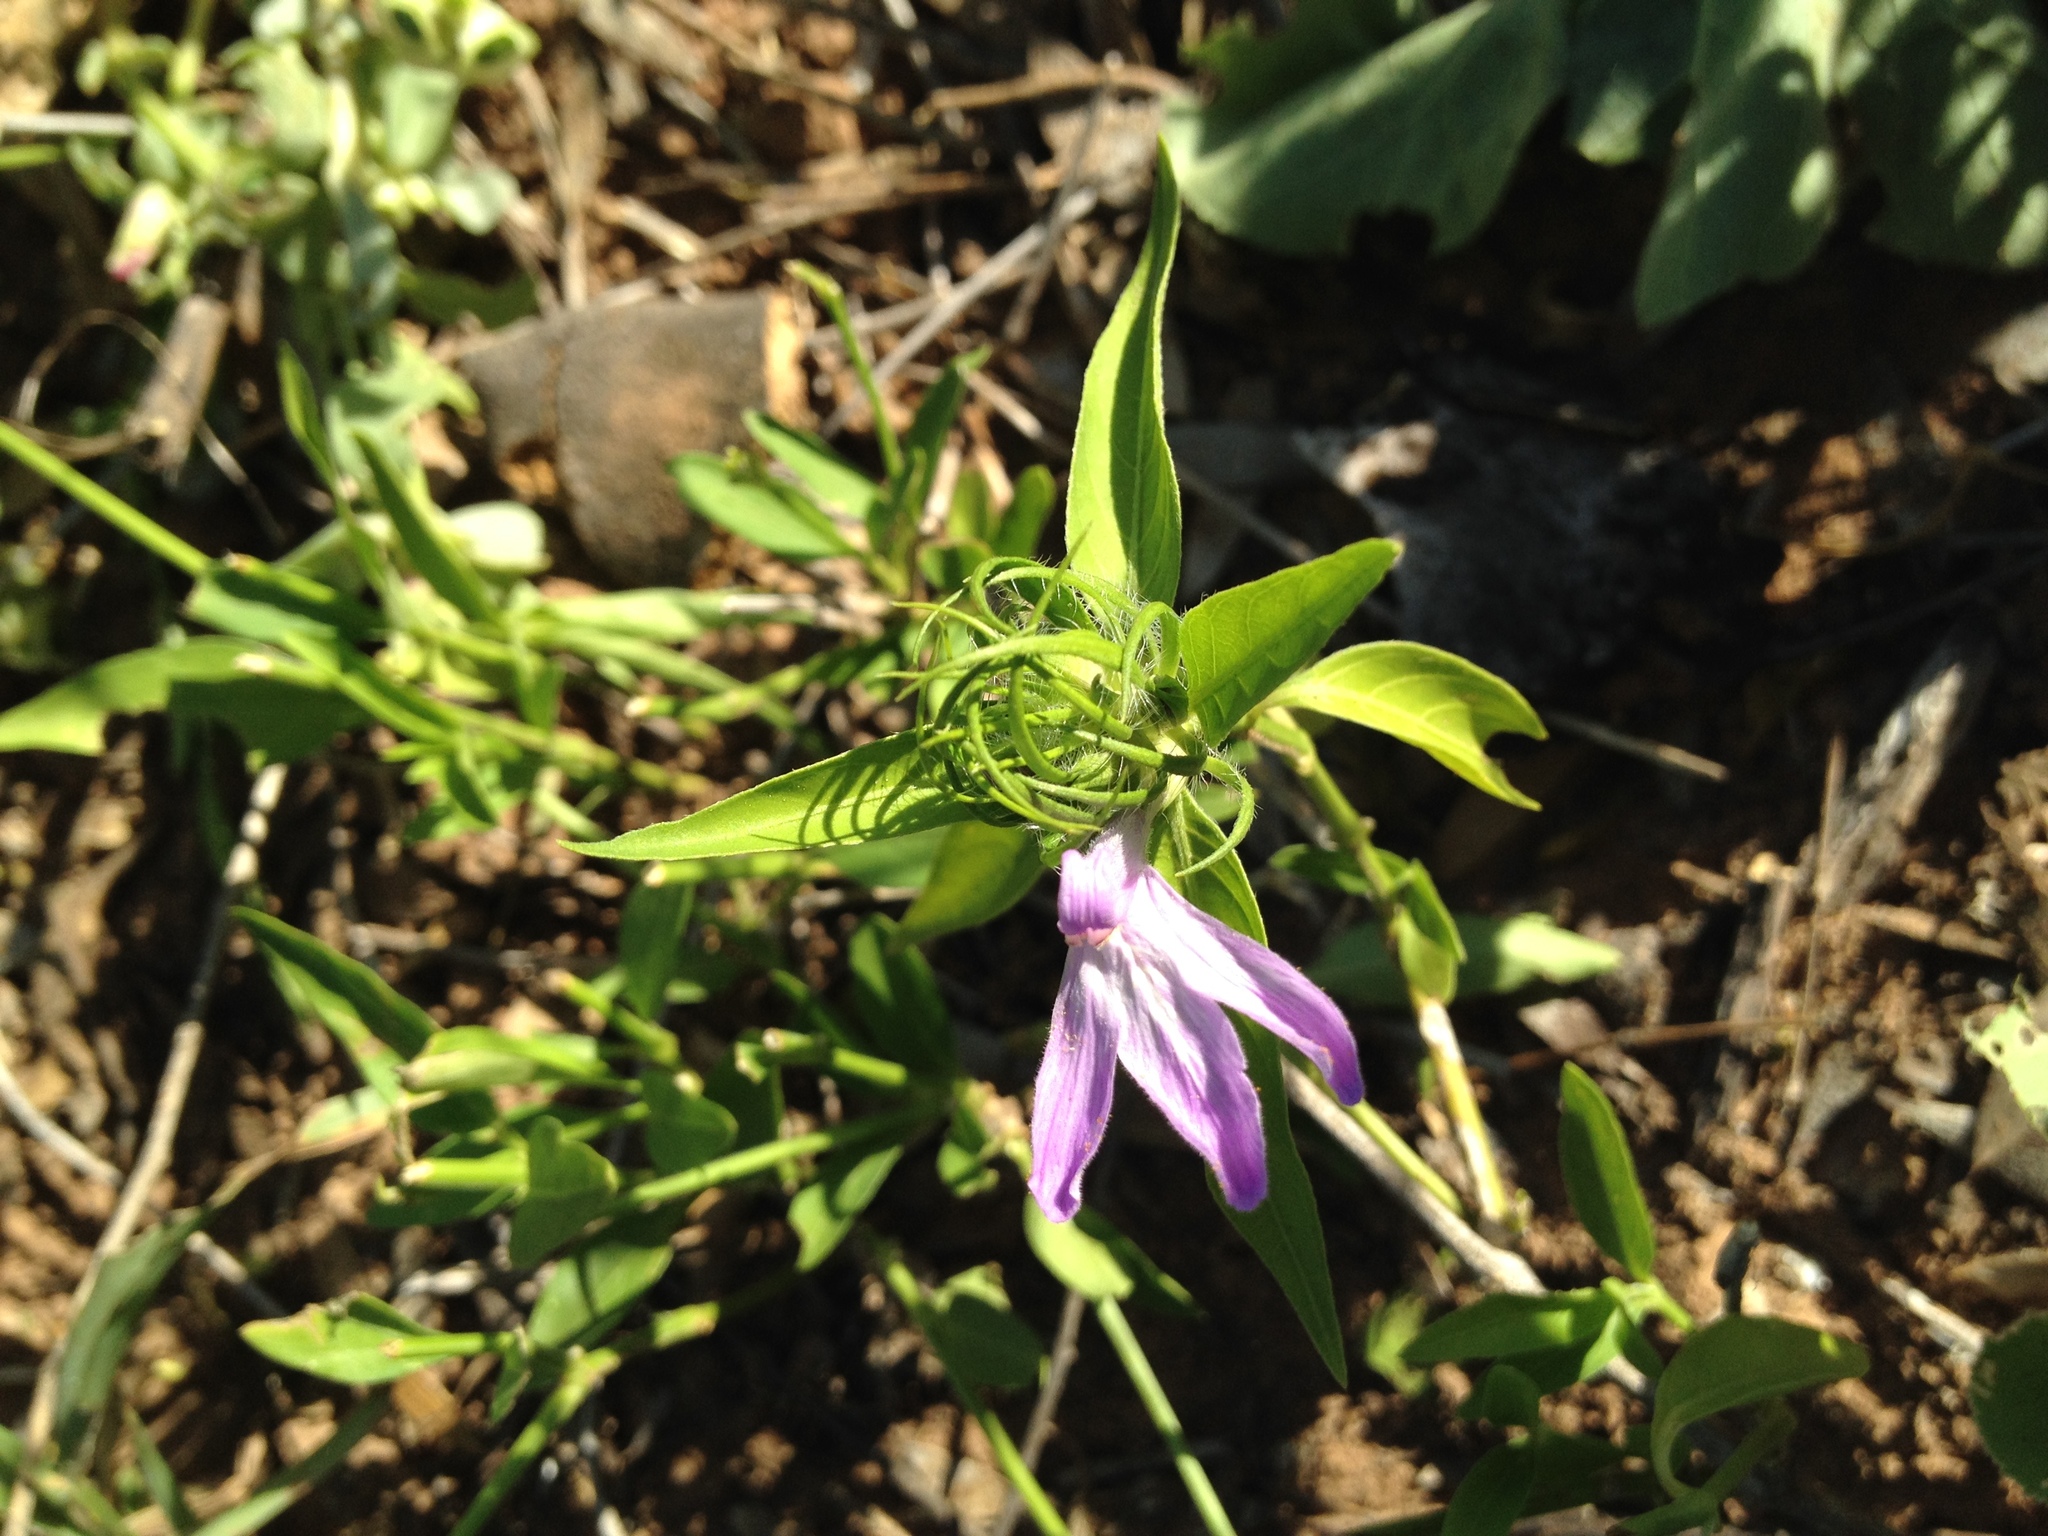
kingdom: Plantae
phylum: Tracheophyta
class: Magnoliopsida
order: Lamiales
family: Acanthaceae
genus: Justicia
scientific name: Justicia squarrosa
